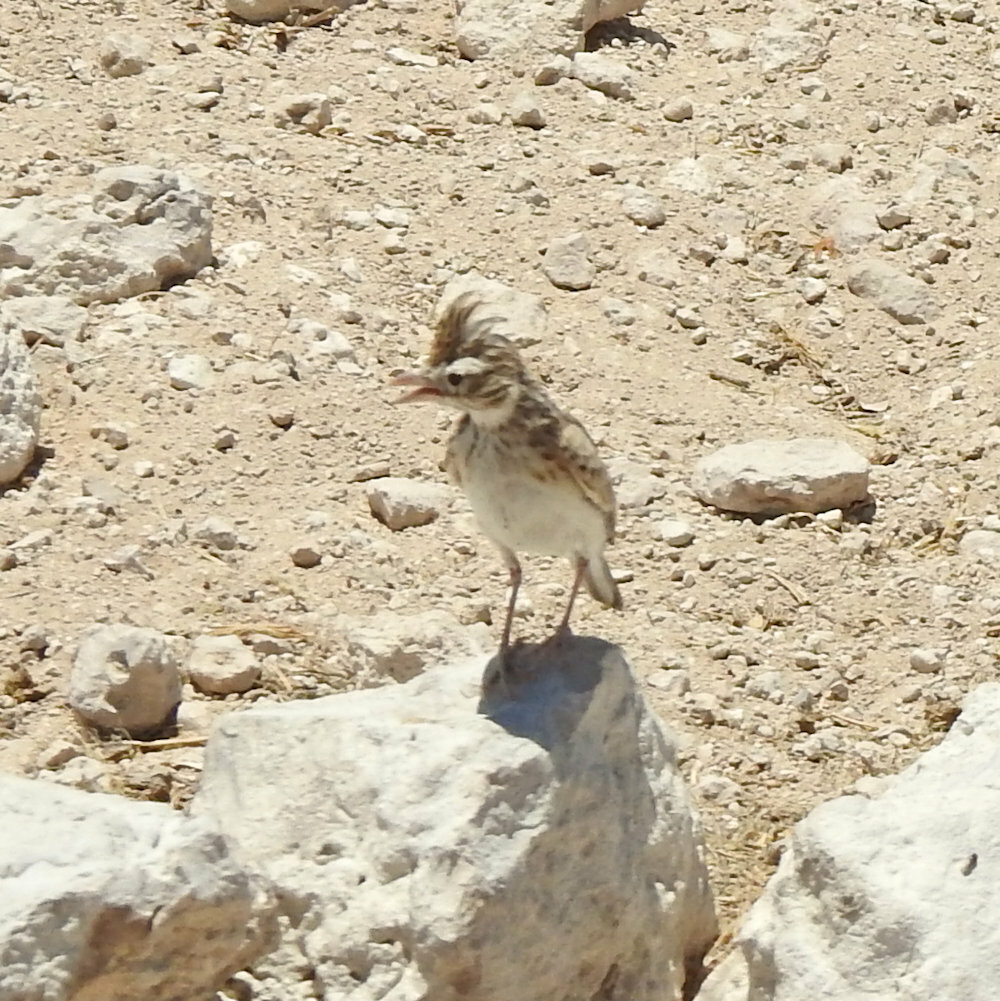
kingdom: Animalia
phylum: Chordata
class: Aves
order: Passeriformes
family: Alaudidae
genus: Spizocorys
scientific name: Spizocorys starki
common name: Stark's lark
